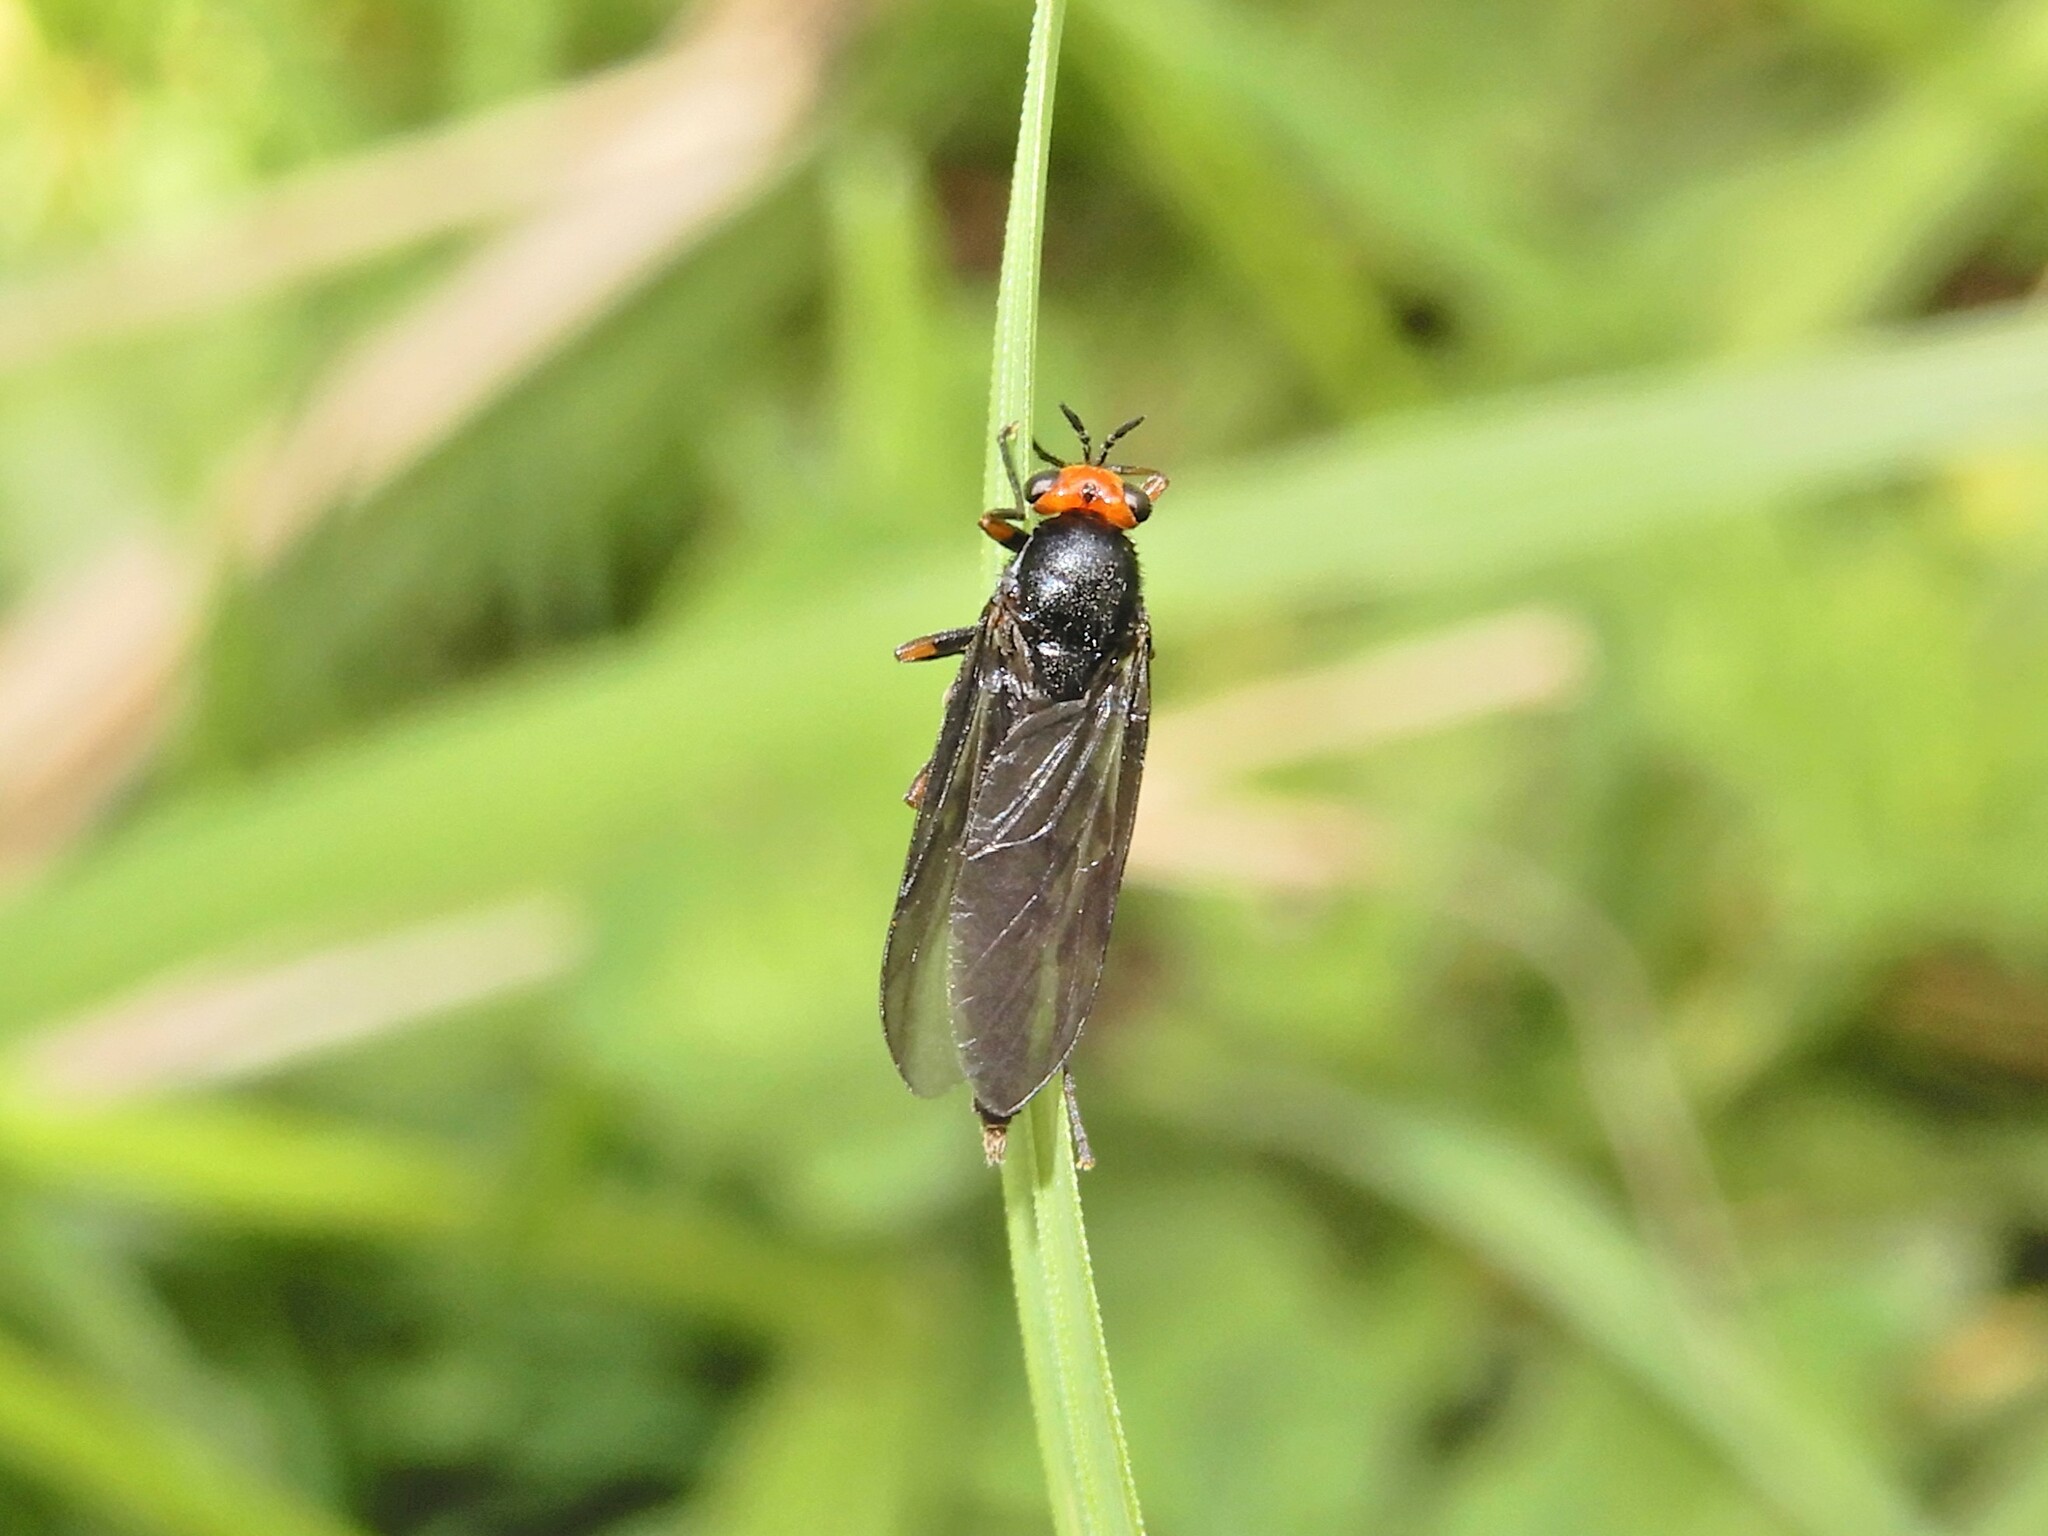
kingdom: Animalia
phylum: Arthropoda
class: Insecta
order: Diptera
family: Stratiomyidae
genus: Inopus
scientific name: Inopus rubriceps
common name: Soldier fly
